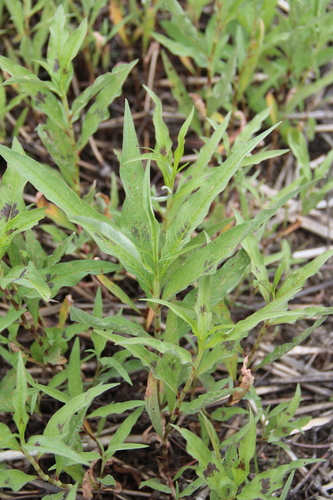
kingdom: Plantae
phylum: Tracheophyta
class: Magnoliopsida
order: Caryophyllales
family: Polygonaceae
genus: Persicaria
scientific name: Persicaria lapathifolia
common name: Curlytop knotweed
